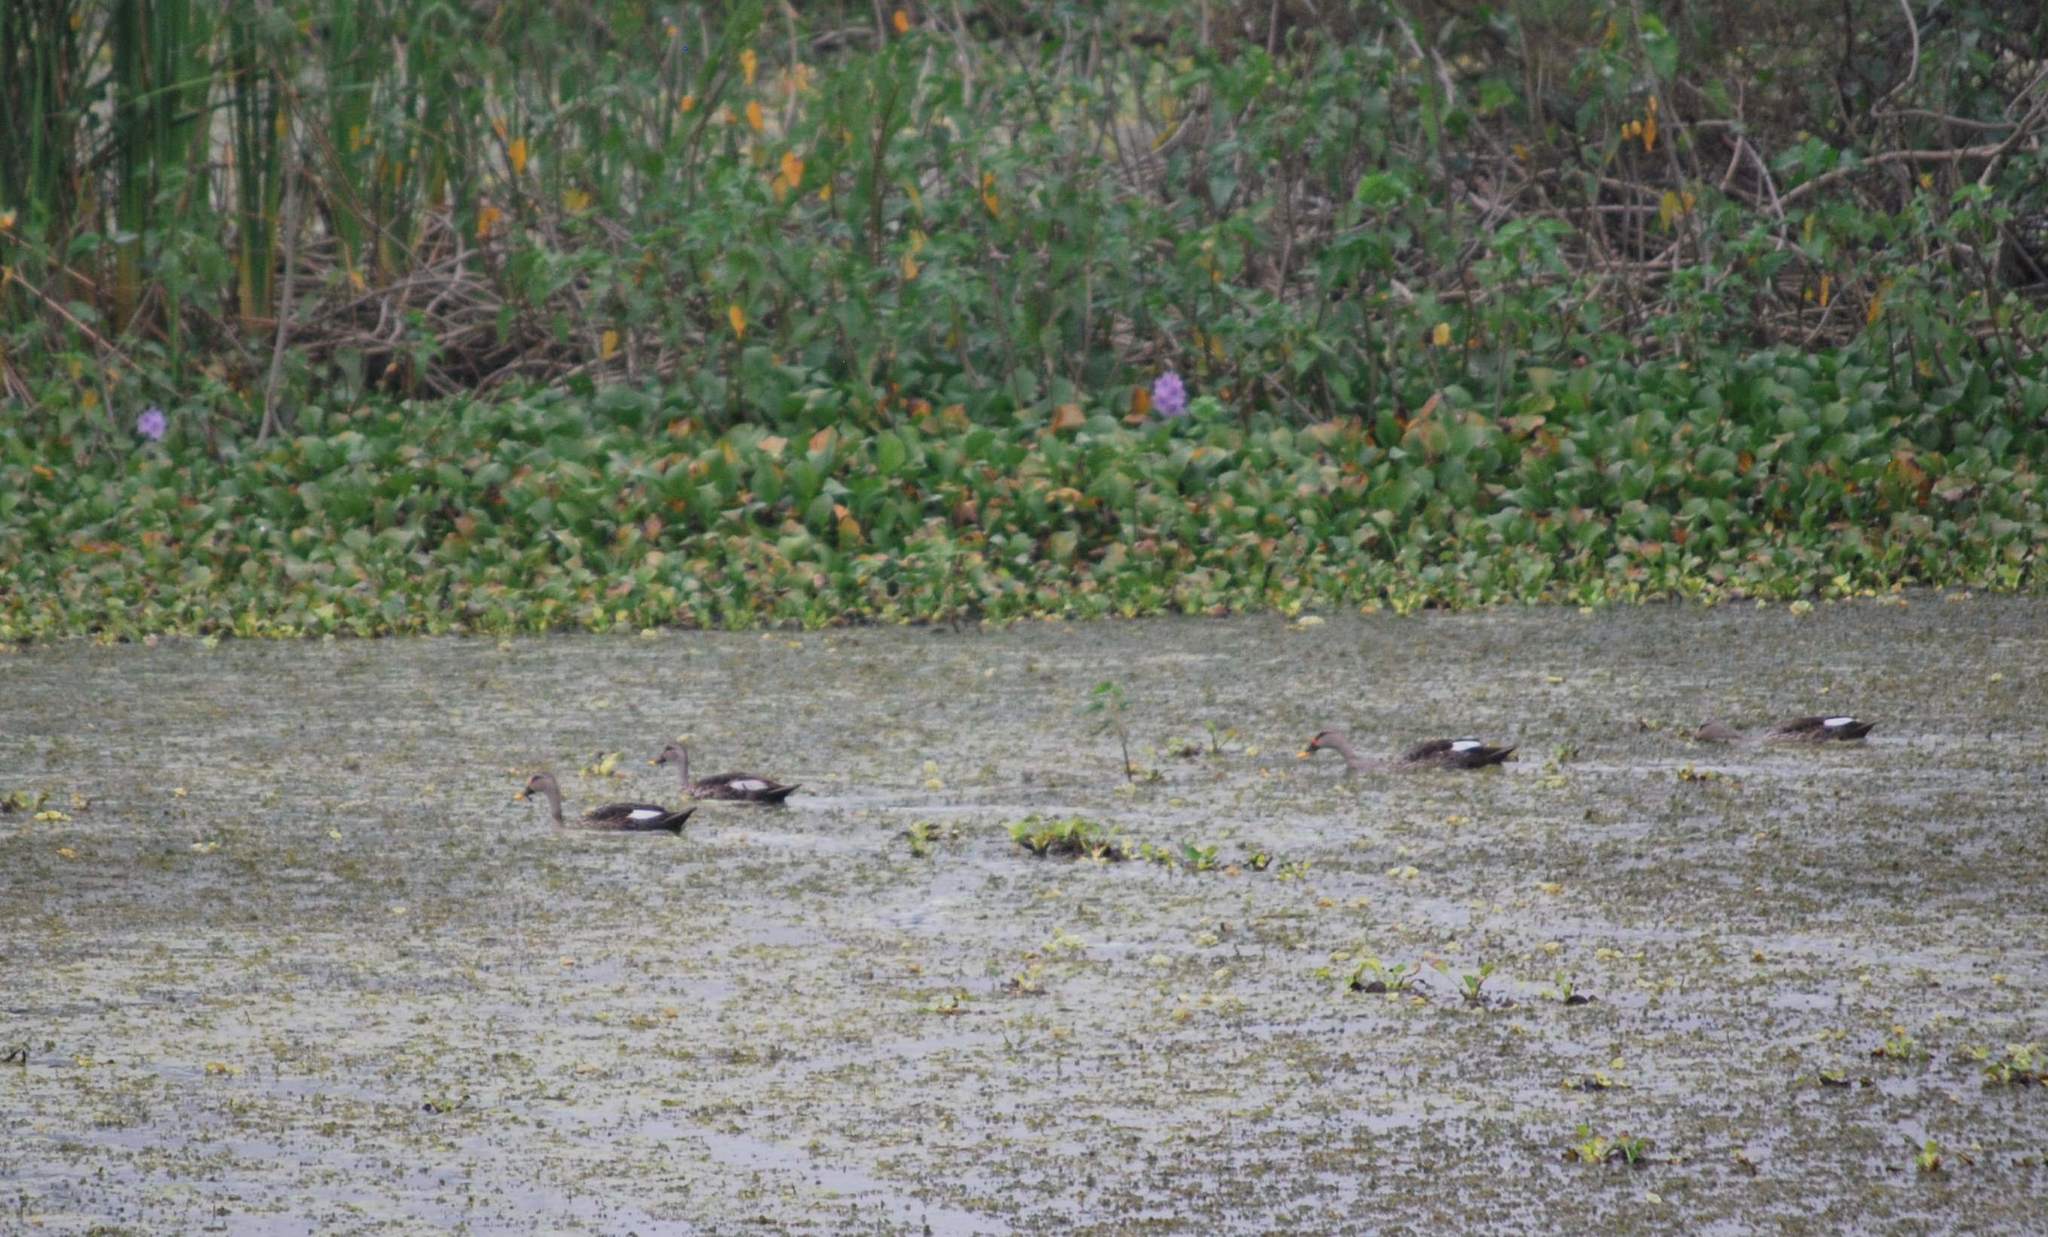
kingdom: Animalia
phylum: Chordata
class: Aves
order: Anseriformes
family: Anatidae
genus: Anas
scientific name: Anas poecilorhyncha
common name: Indian spot-billed duck
